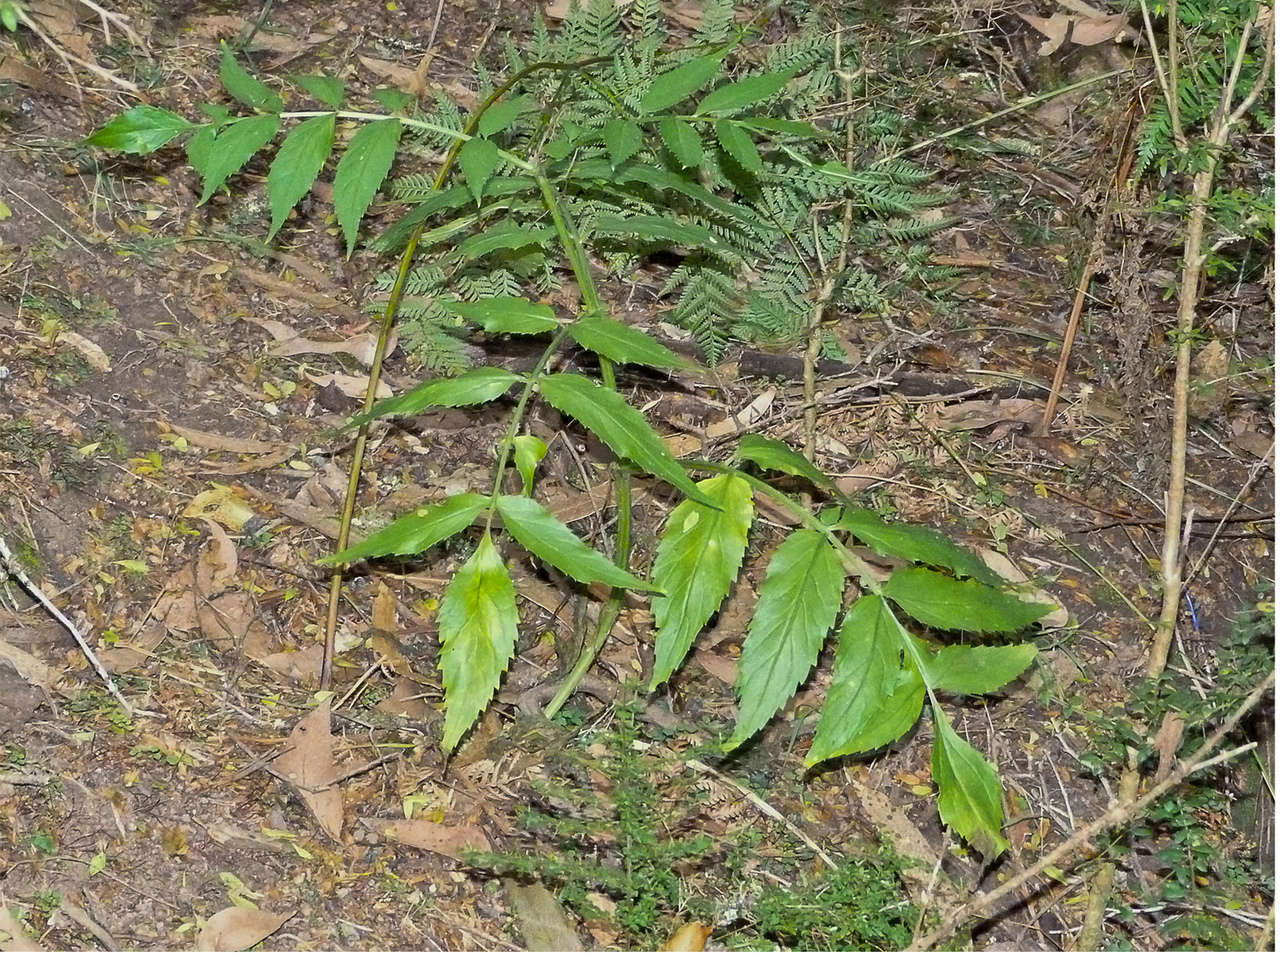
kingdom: Plantae
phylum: Tracheophyta
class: Magnoliopsida
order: Dipsacales
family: Viburnaceae
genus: Sambucus
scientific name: Sambucus gaudichaudiana
